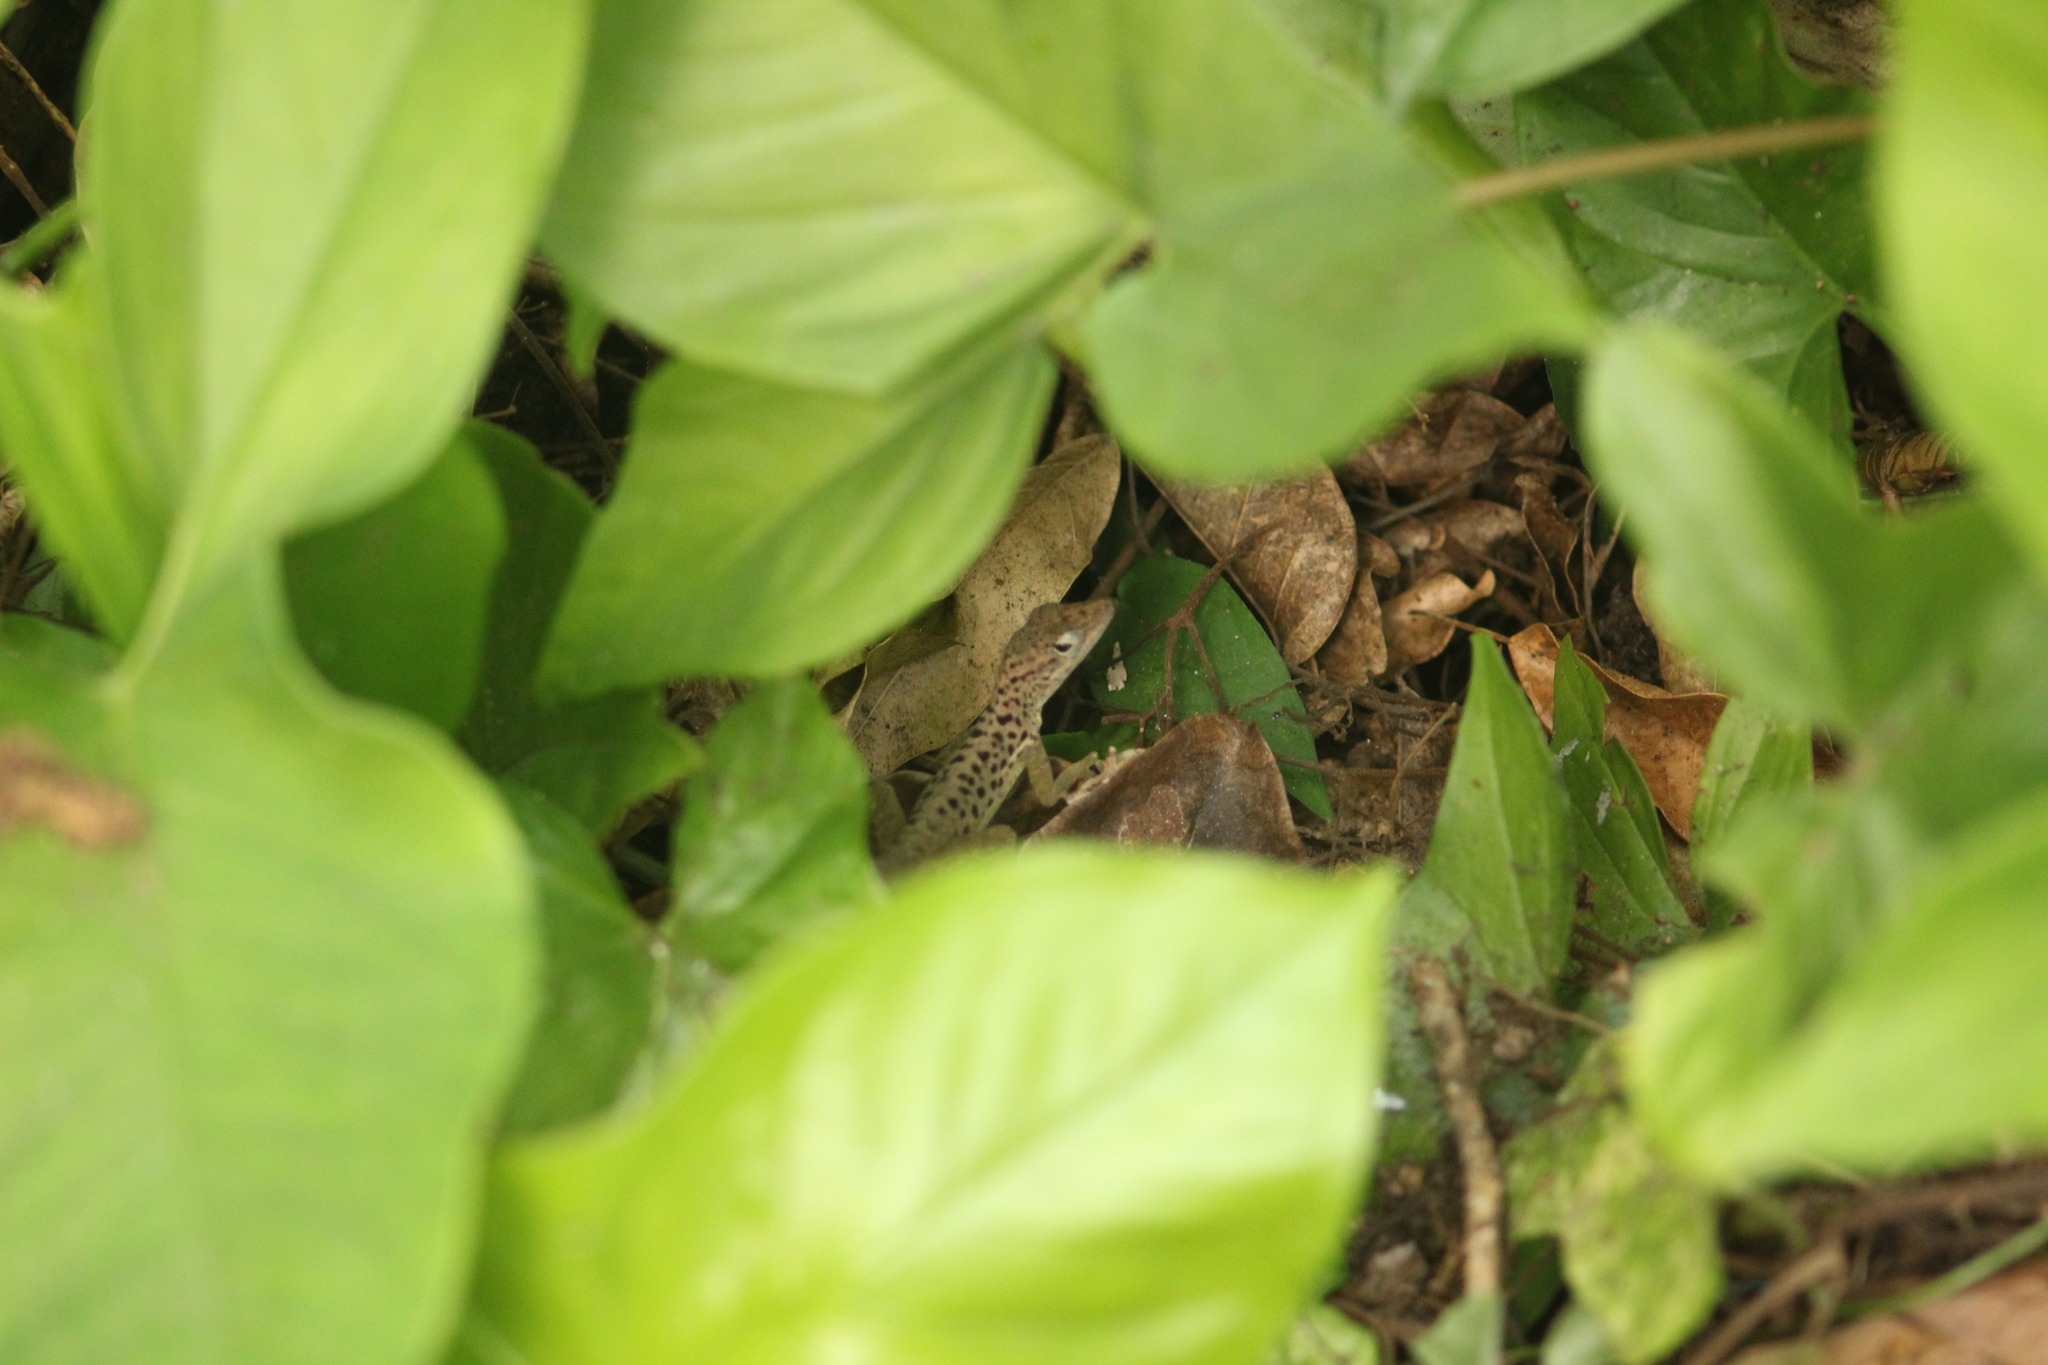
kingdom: Animalia
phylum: Chordata
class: Squamata
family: Dactyloidae
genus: Anolis
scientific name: Anolis sabanus
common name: Saba anole
